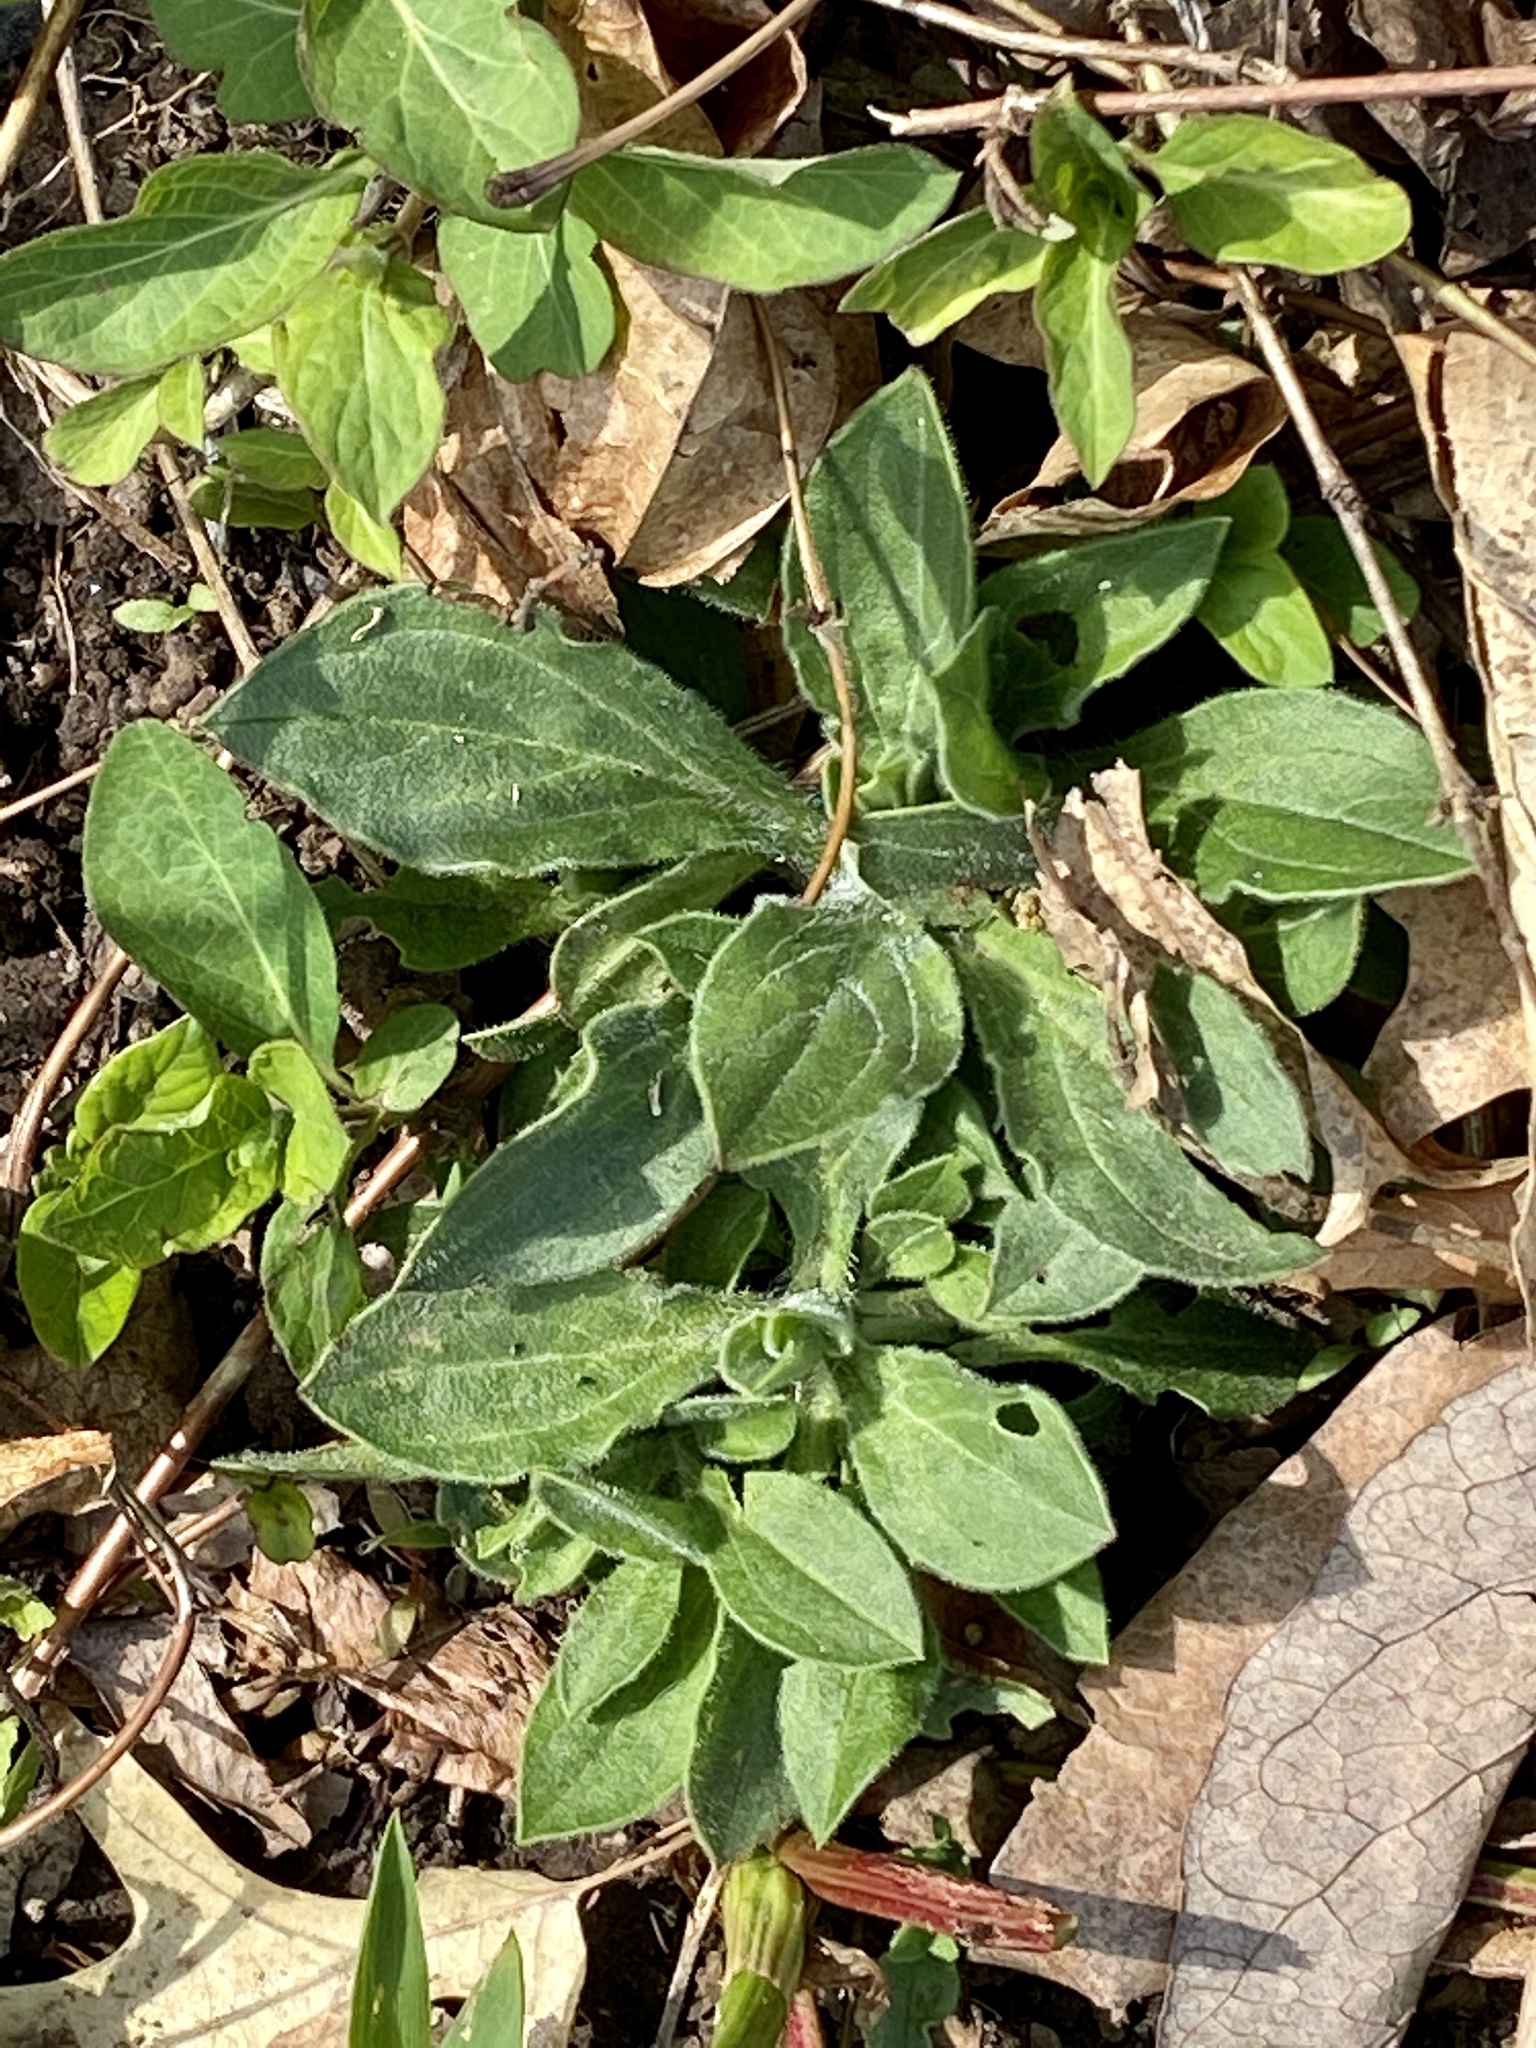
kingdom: Plantae
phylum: Tracheophyta
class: Magnoliopsida
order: Caryophyllales
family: Caryophyllaceae
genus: Silene
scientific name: Silene latifolia
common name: White campion
